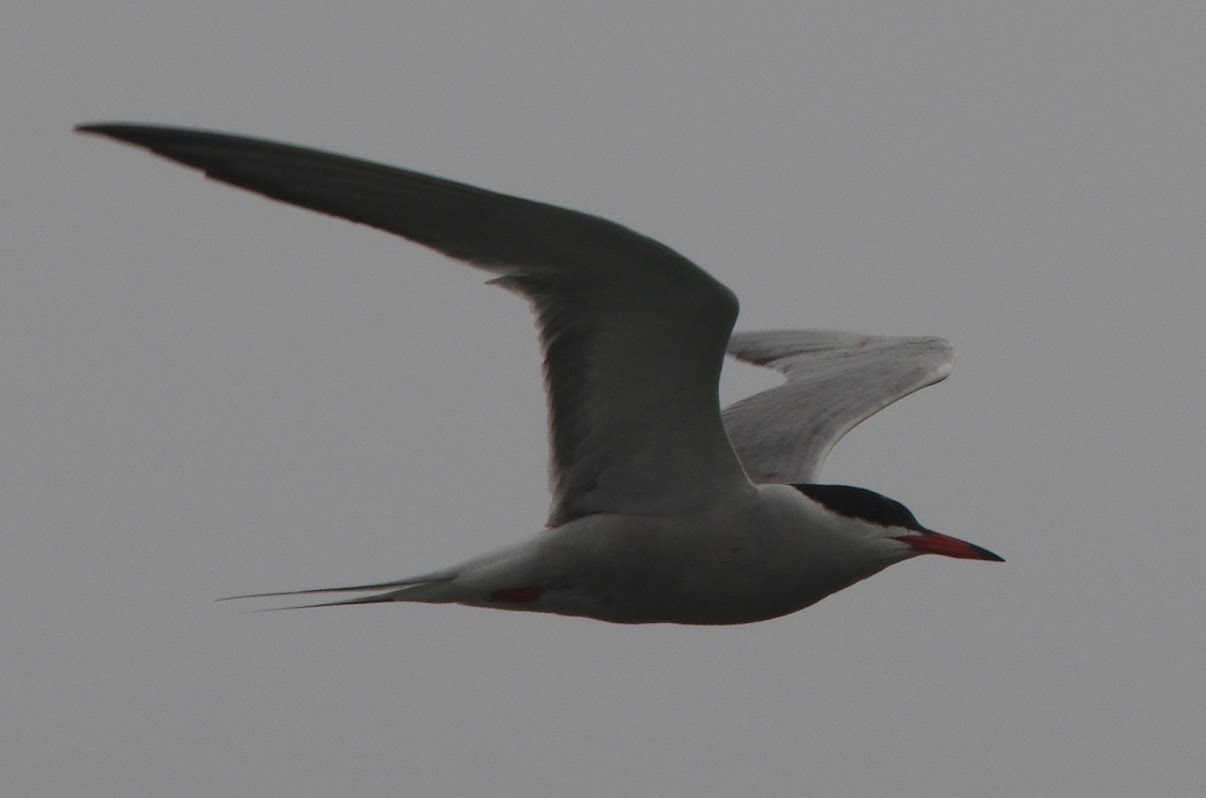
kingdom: Animalia
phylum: Chordata
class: Aves
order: Charadriiformes
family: Laridae
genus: Sterna
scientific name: Sterna hirundo
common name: Common tern
